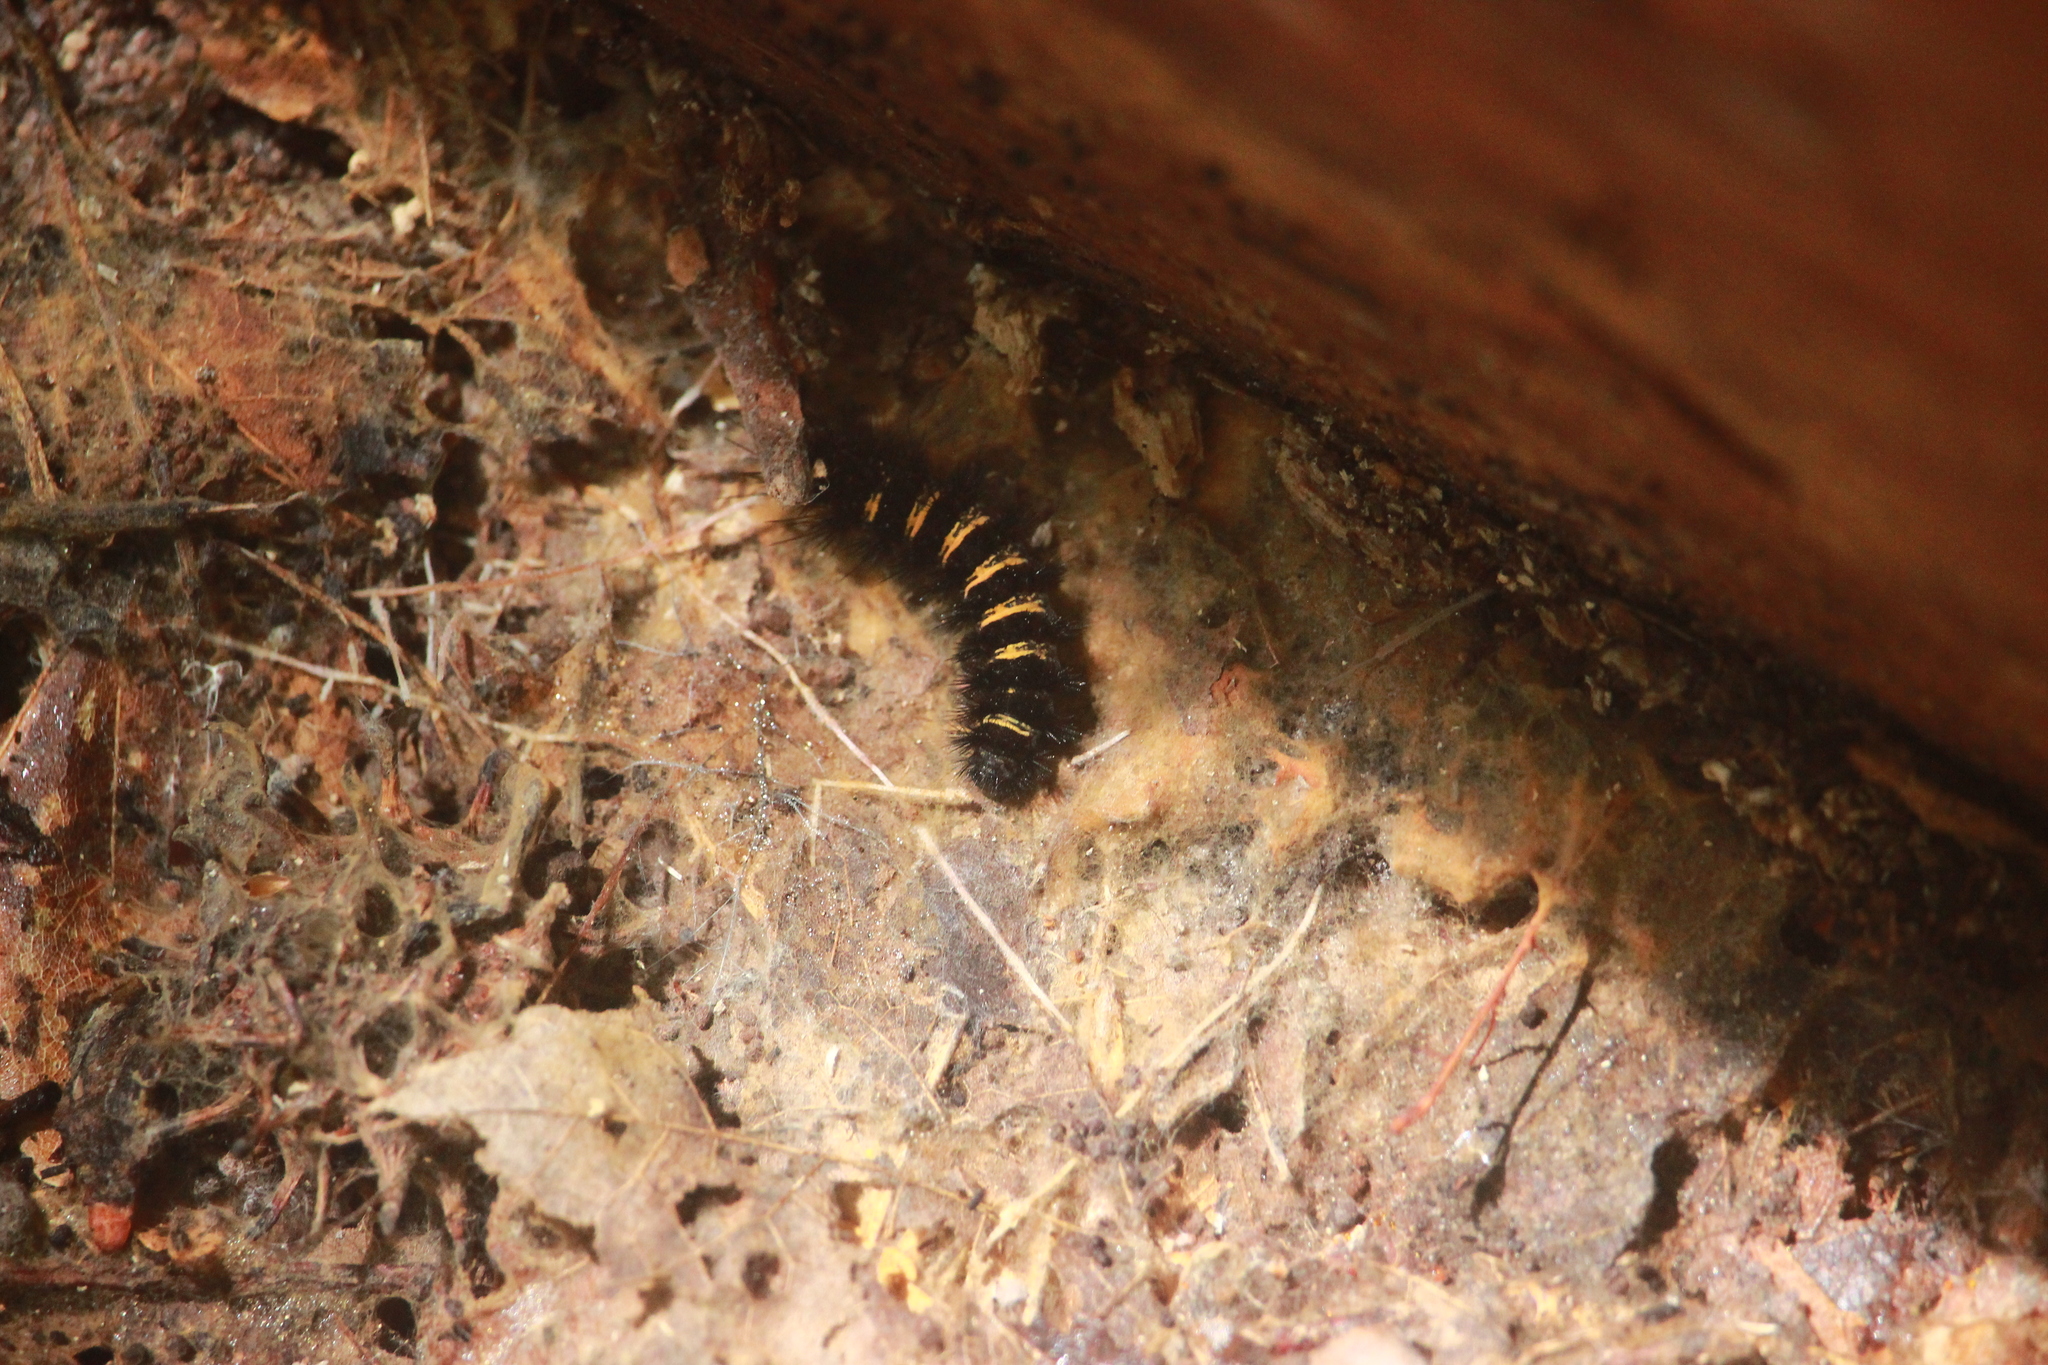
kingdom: Animalia
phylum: Arthropoda
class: Insecta
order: Lepidoptera
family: Erebidae
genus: Spilosoma
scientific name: Spilosoma congrua
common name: Agreeable tiger moth
